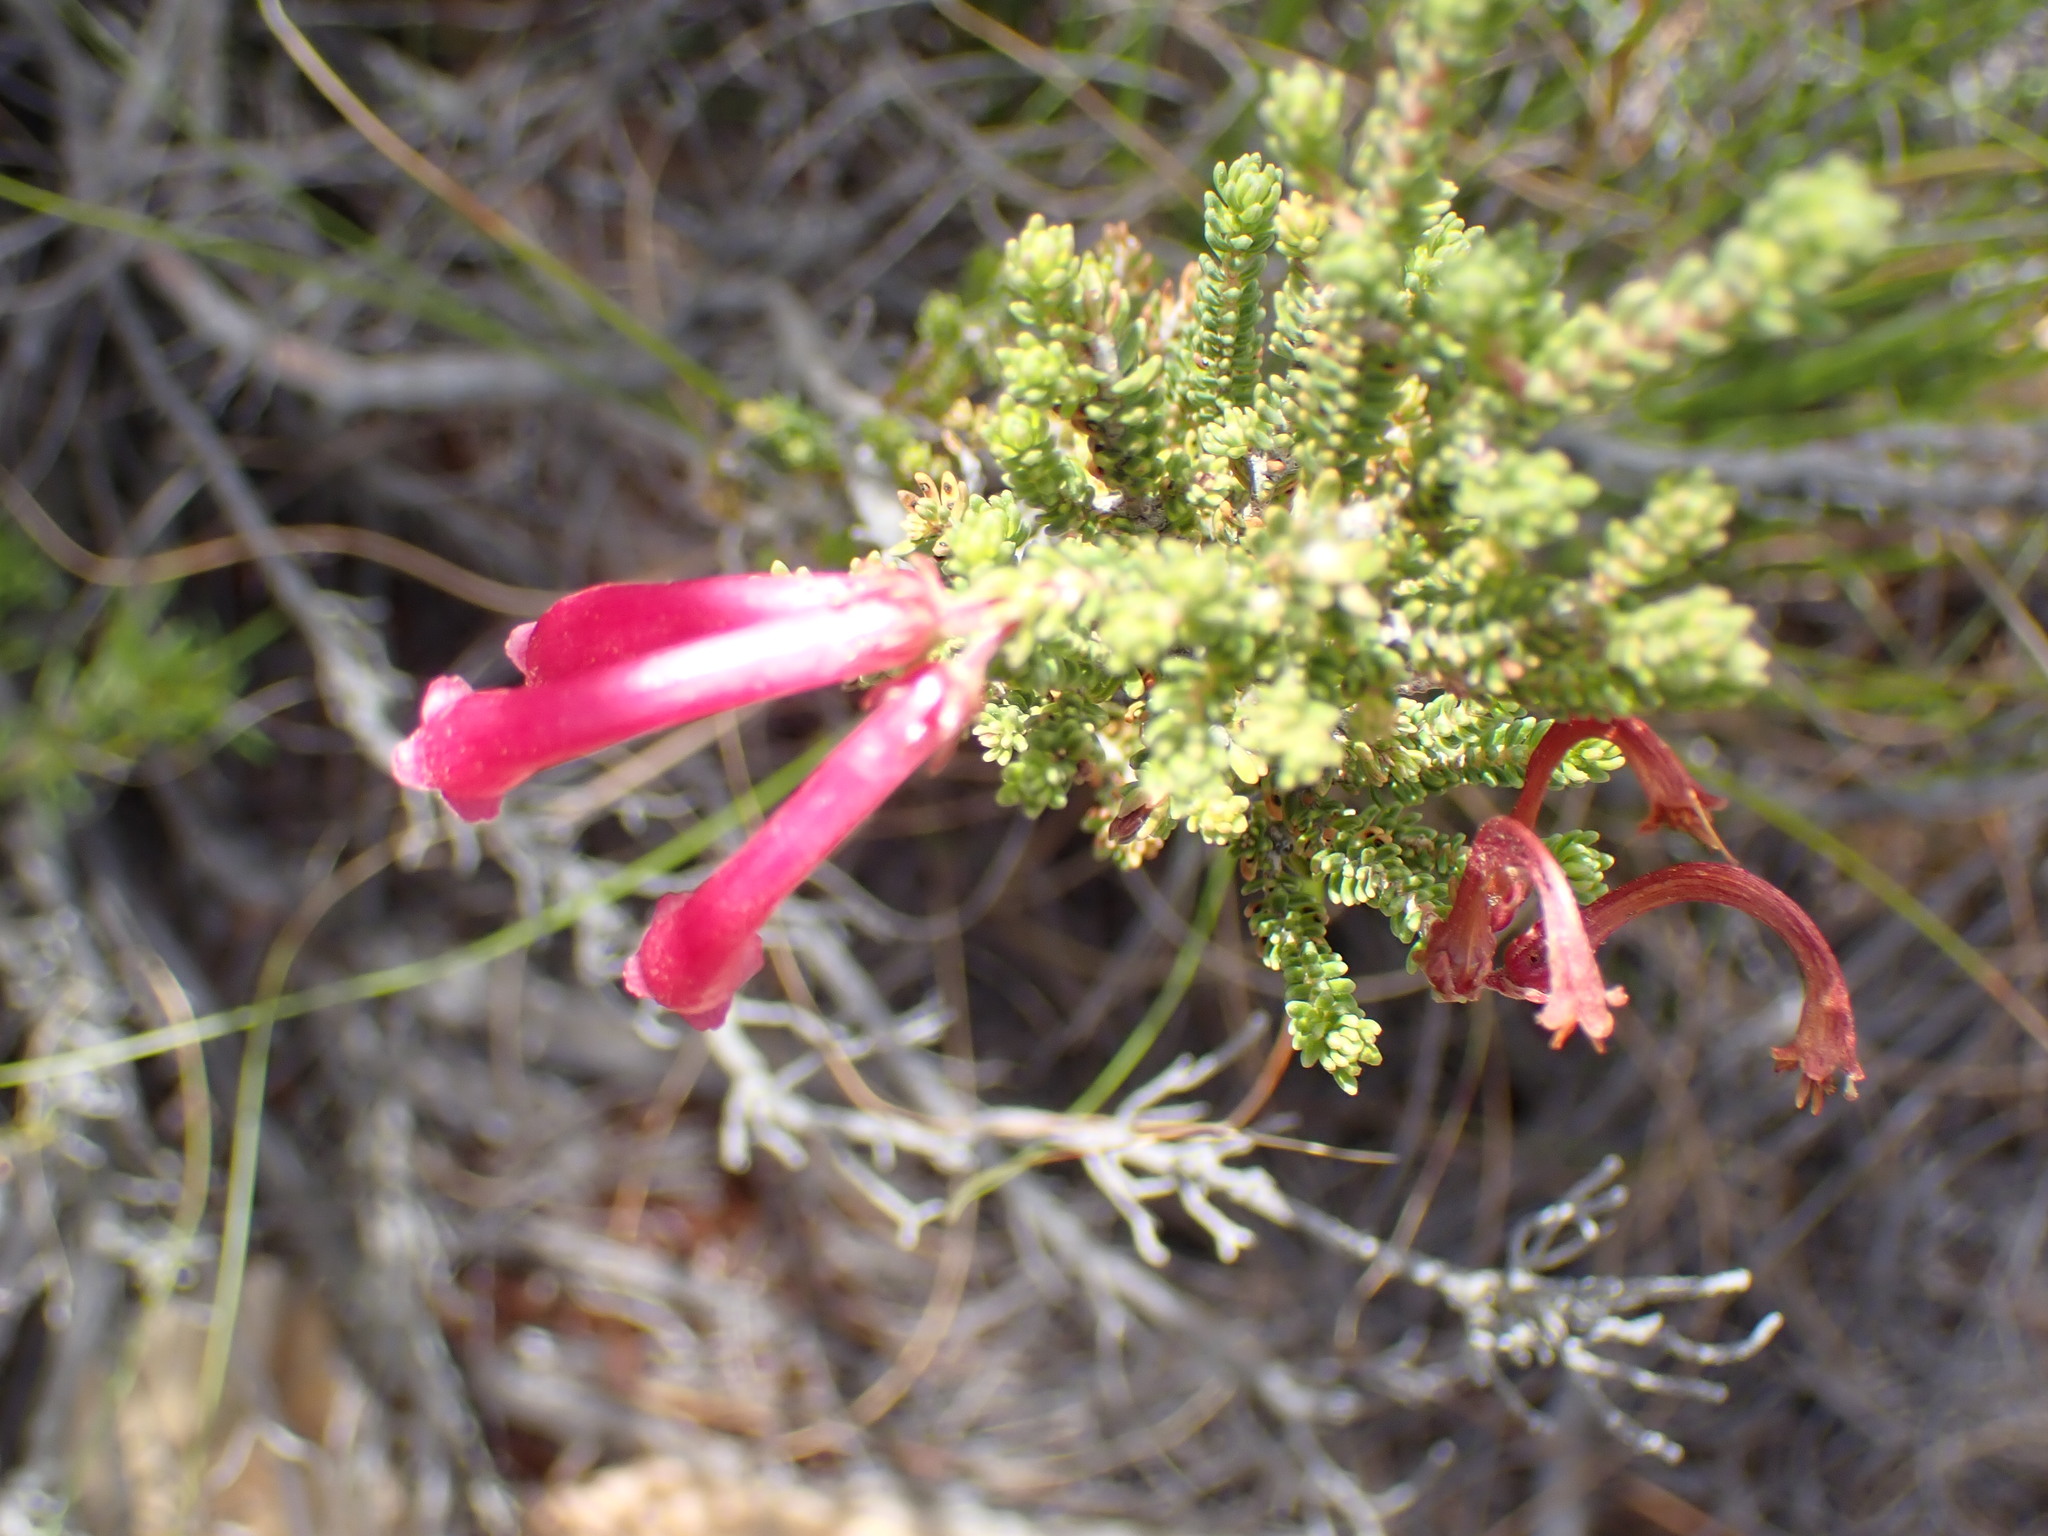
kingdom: Plantae
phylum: Tracheophyta
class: Magnoliopsida
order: Ericales
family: Ericaceae
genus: Erica
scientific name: Erica discolor
